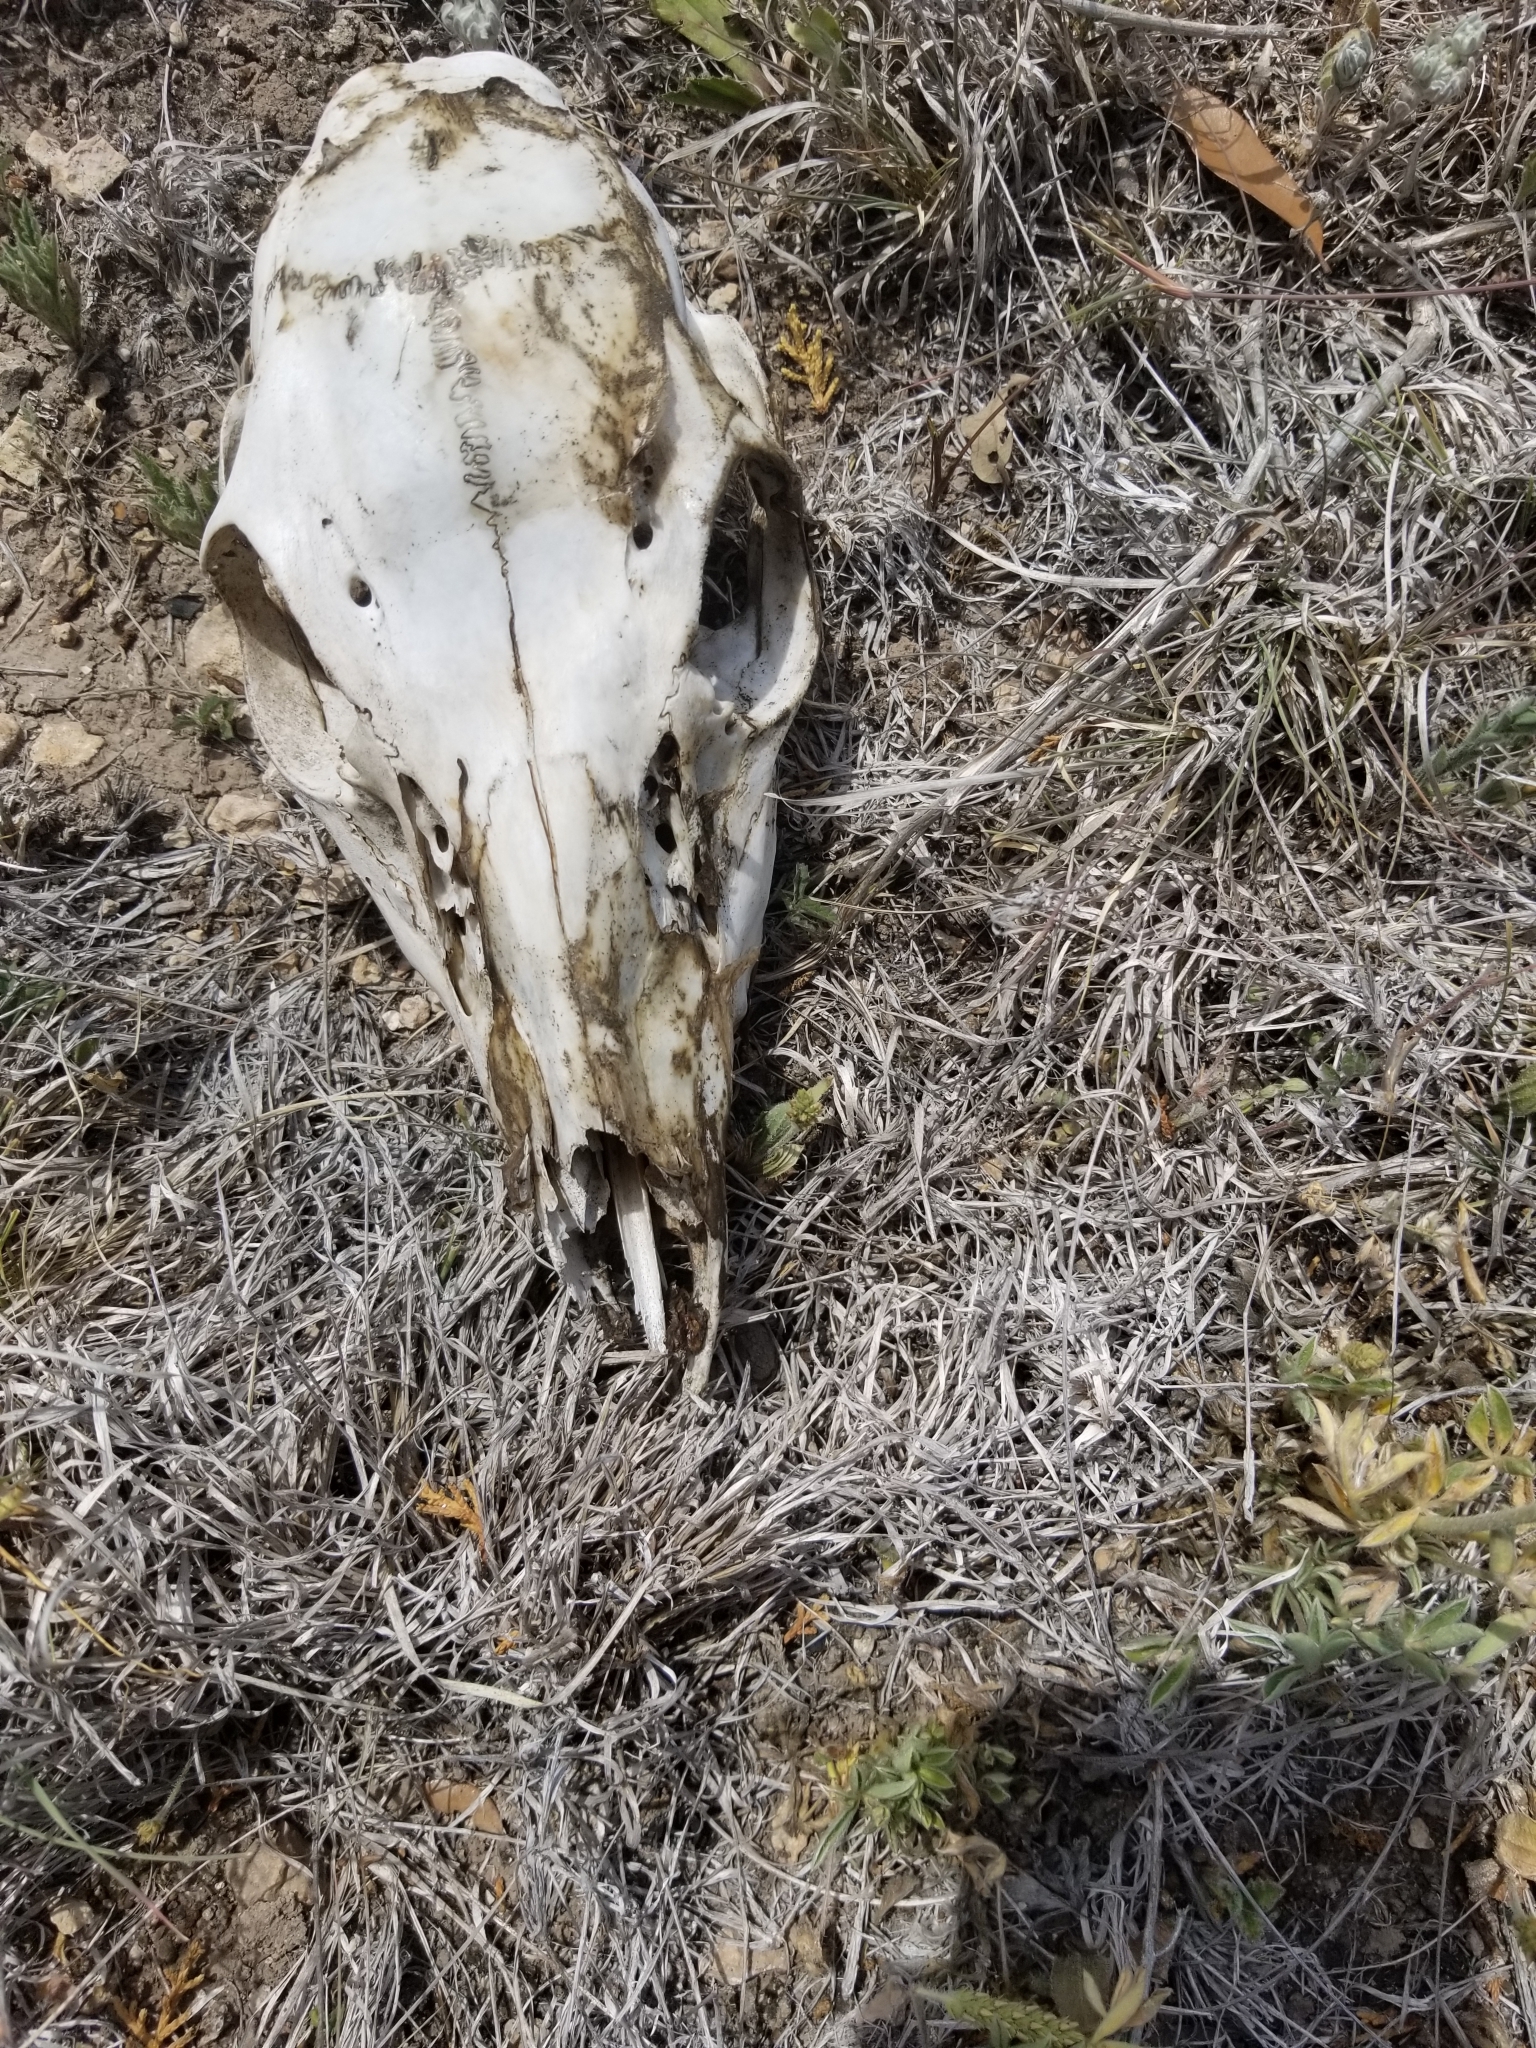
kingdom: Animalia
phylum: Chordata
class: Mammalia
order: Artiodactyla
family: Cervidae
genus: Odocoileus
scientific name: Odocoileus virginianus
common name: White-tailed deer
